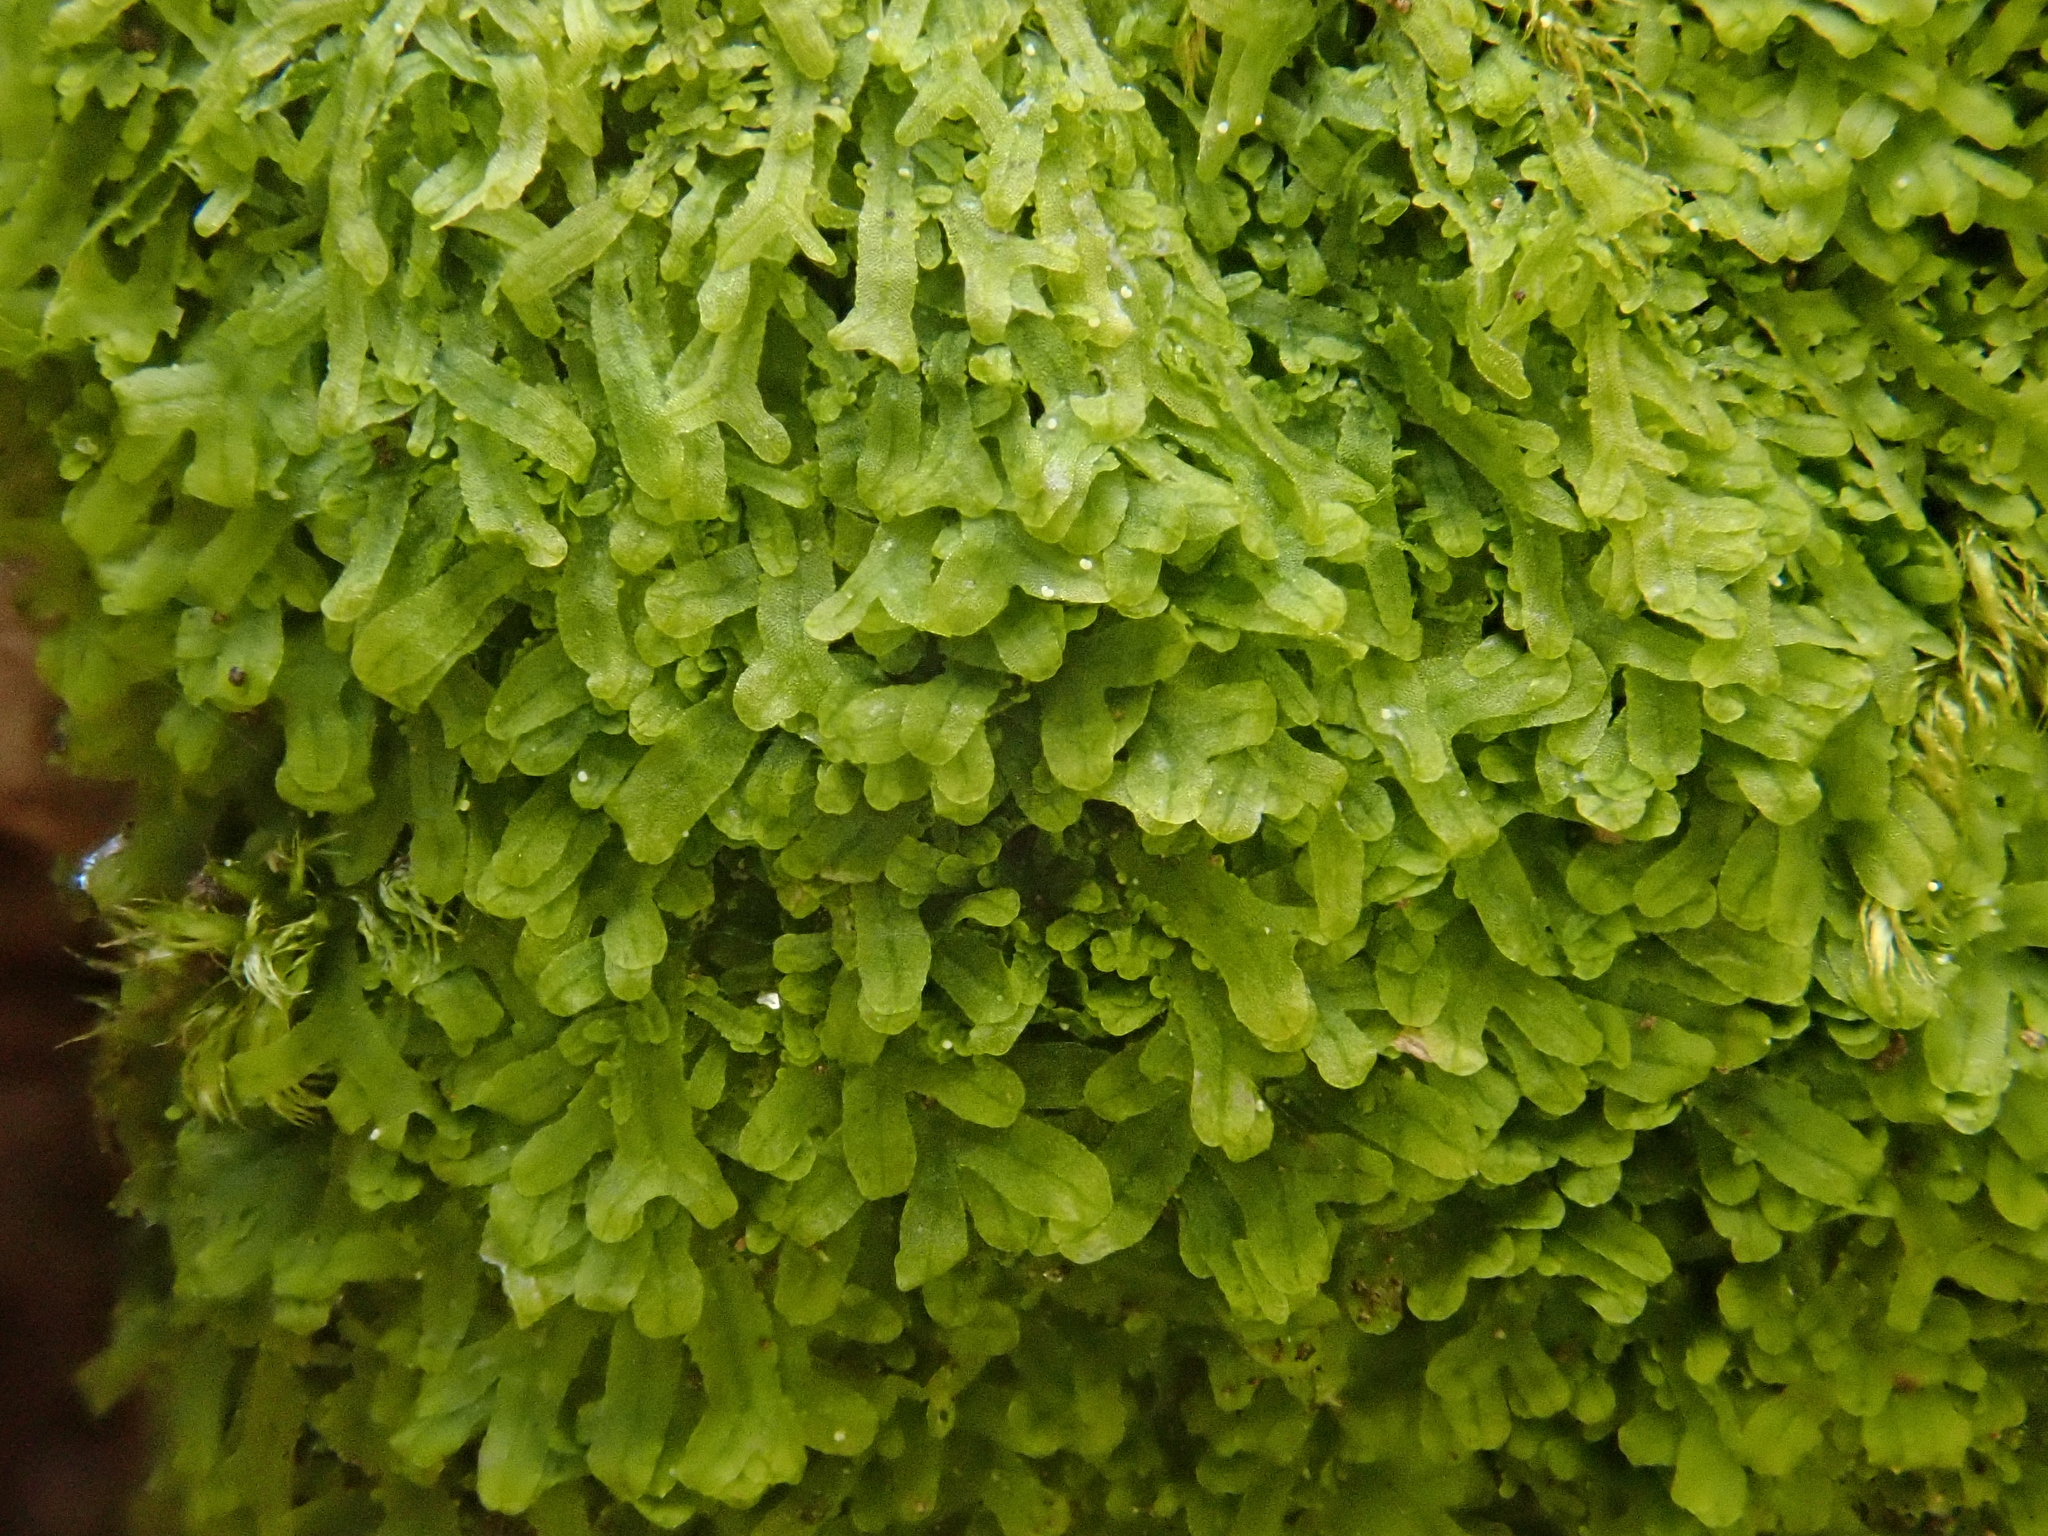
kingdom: Plantae
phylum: Marchantiophyta
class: Jungermanniopsida
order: Metzgeriales
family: Metzgeriaceae
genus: Metzgeria
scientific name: Metzgeria furcata
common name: Forked veilwort
